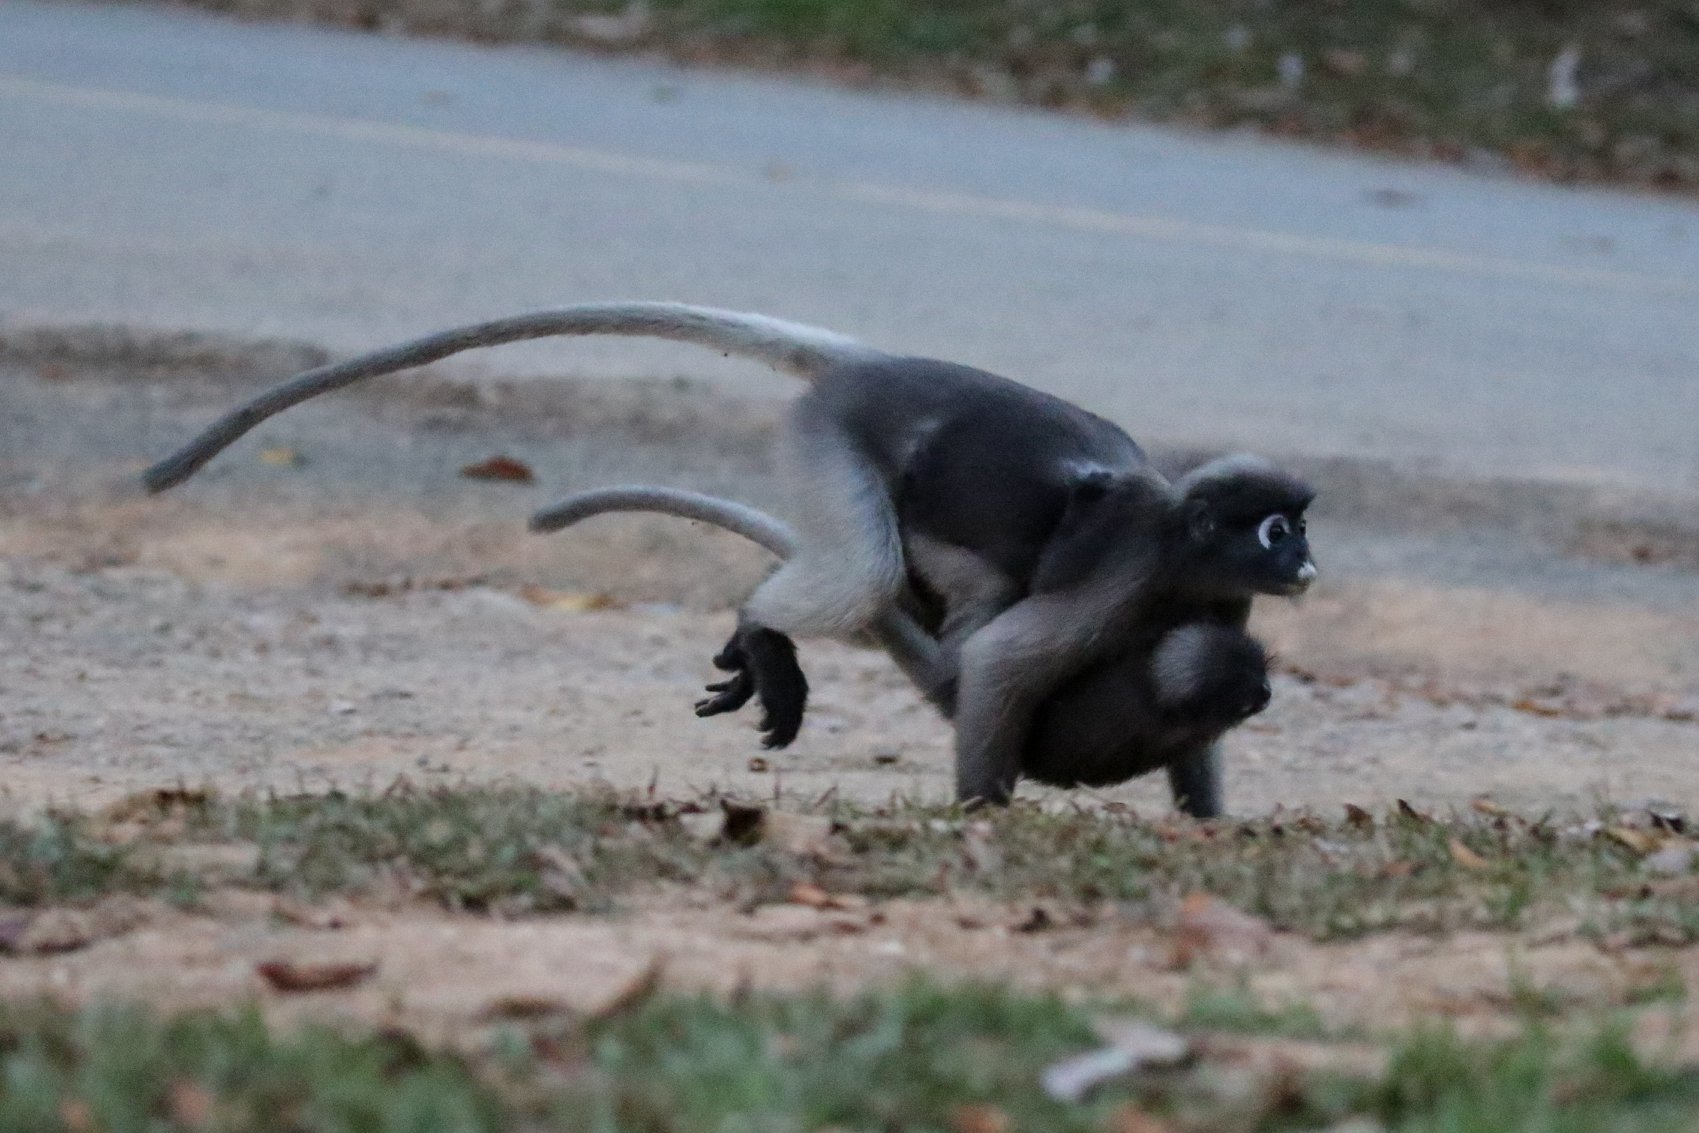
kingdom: Animalia
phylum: Chordata
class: Mammalia
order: Primates
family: Cercopithecidae
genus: Trachypithecus
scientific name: Trachypithecus obscurus
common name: Dusky leaf-monkey
